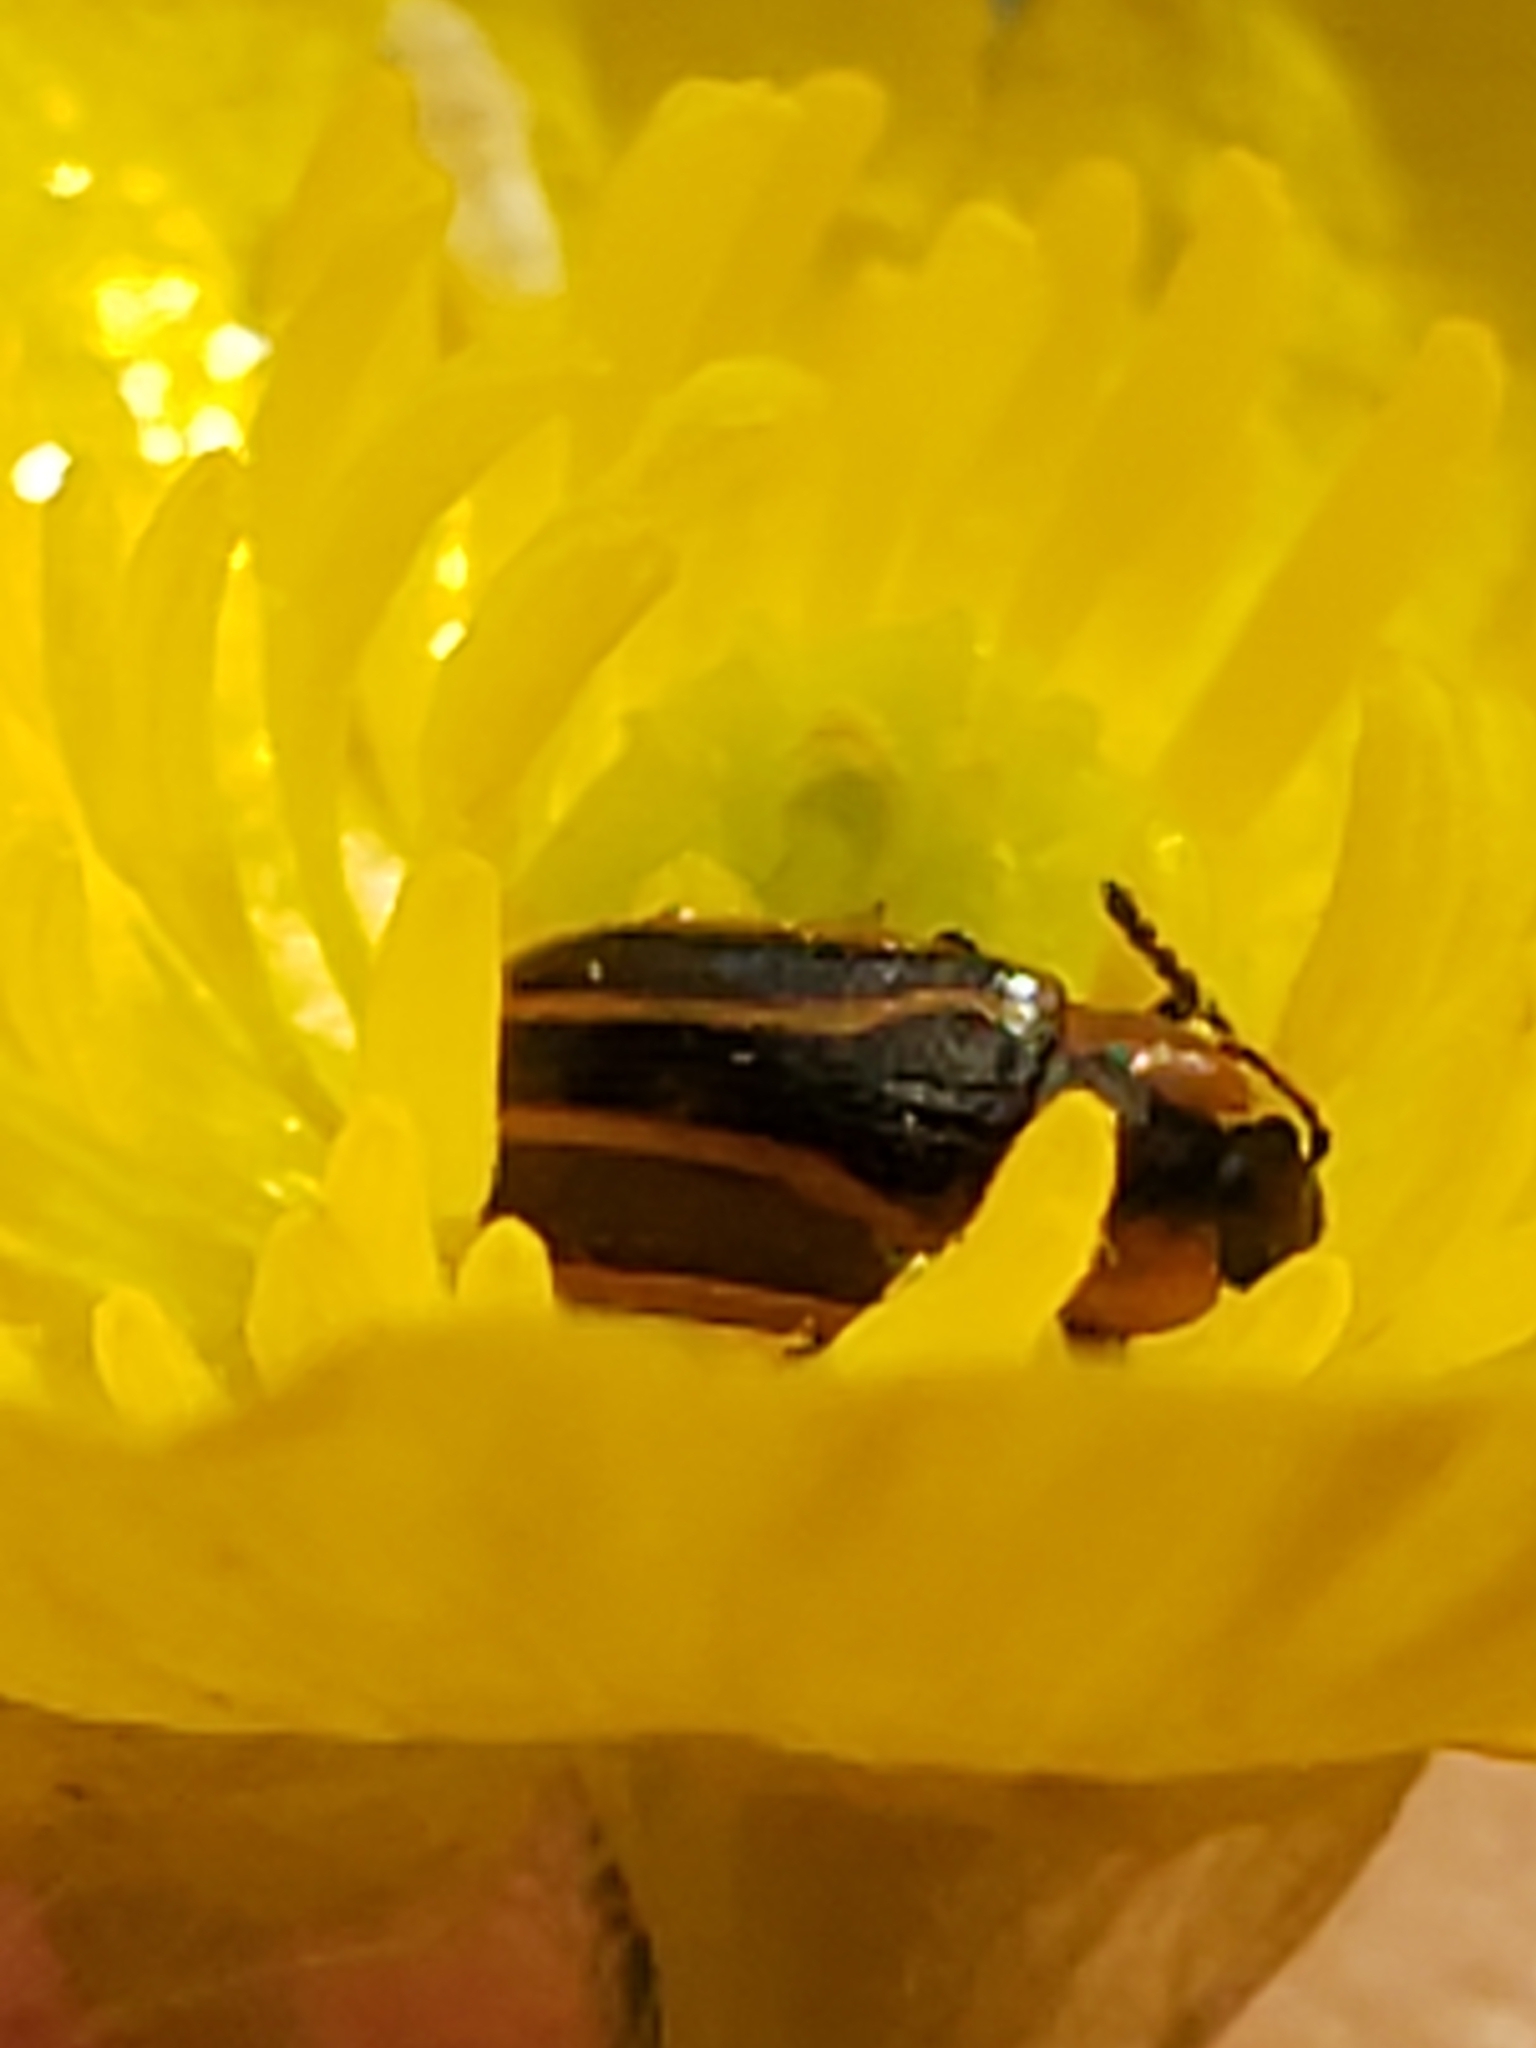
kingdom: Animalia
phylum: Arthropoda
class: Insecta
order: Coleoptera
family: Chrysomelidae
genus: Prasocuris
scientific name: Prasocuris vittata
